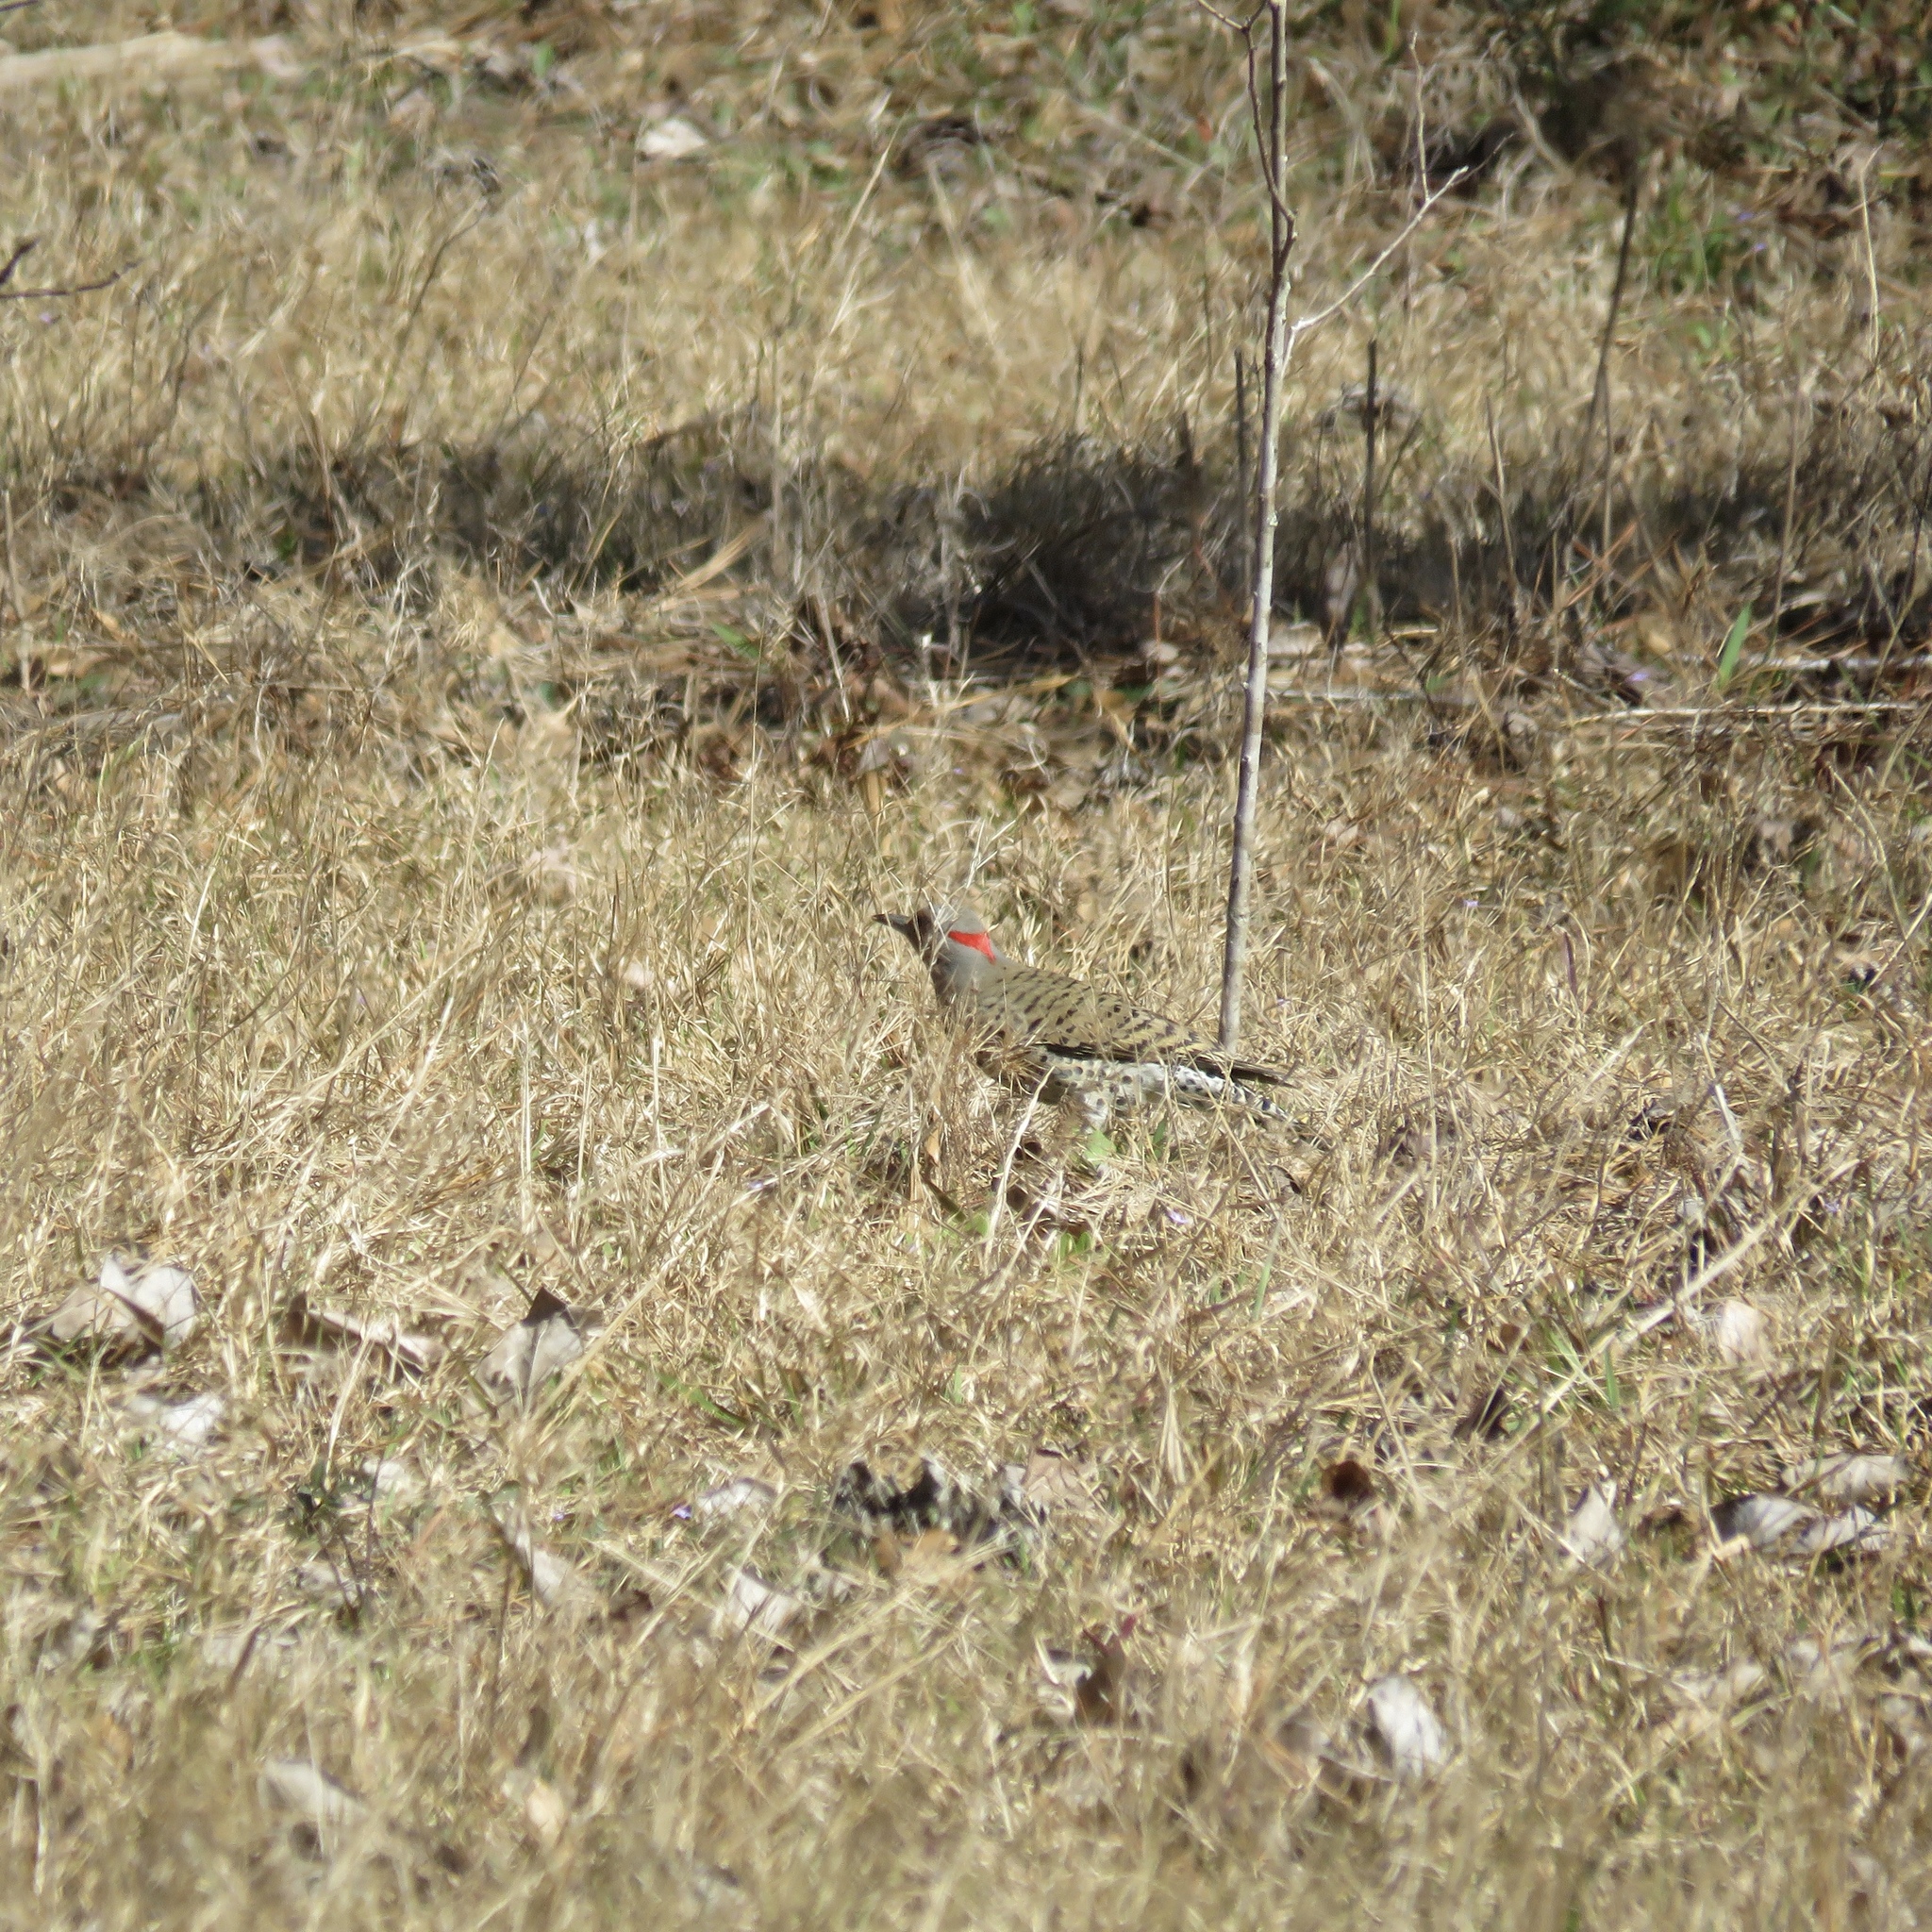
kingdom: Animalia
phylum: Chordata
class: Aves
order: Piciformes
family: Picidae
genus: Colaptes
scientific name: Colaptes auratus
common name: Northern flicker
